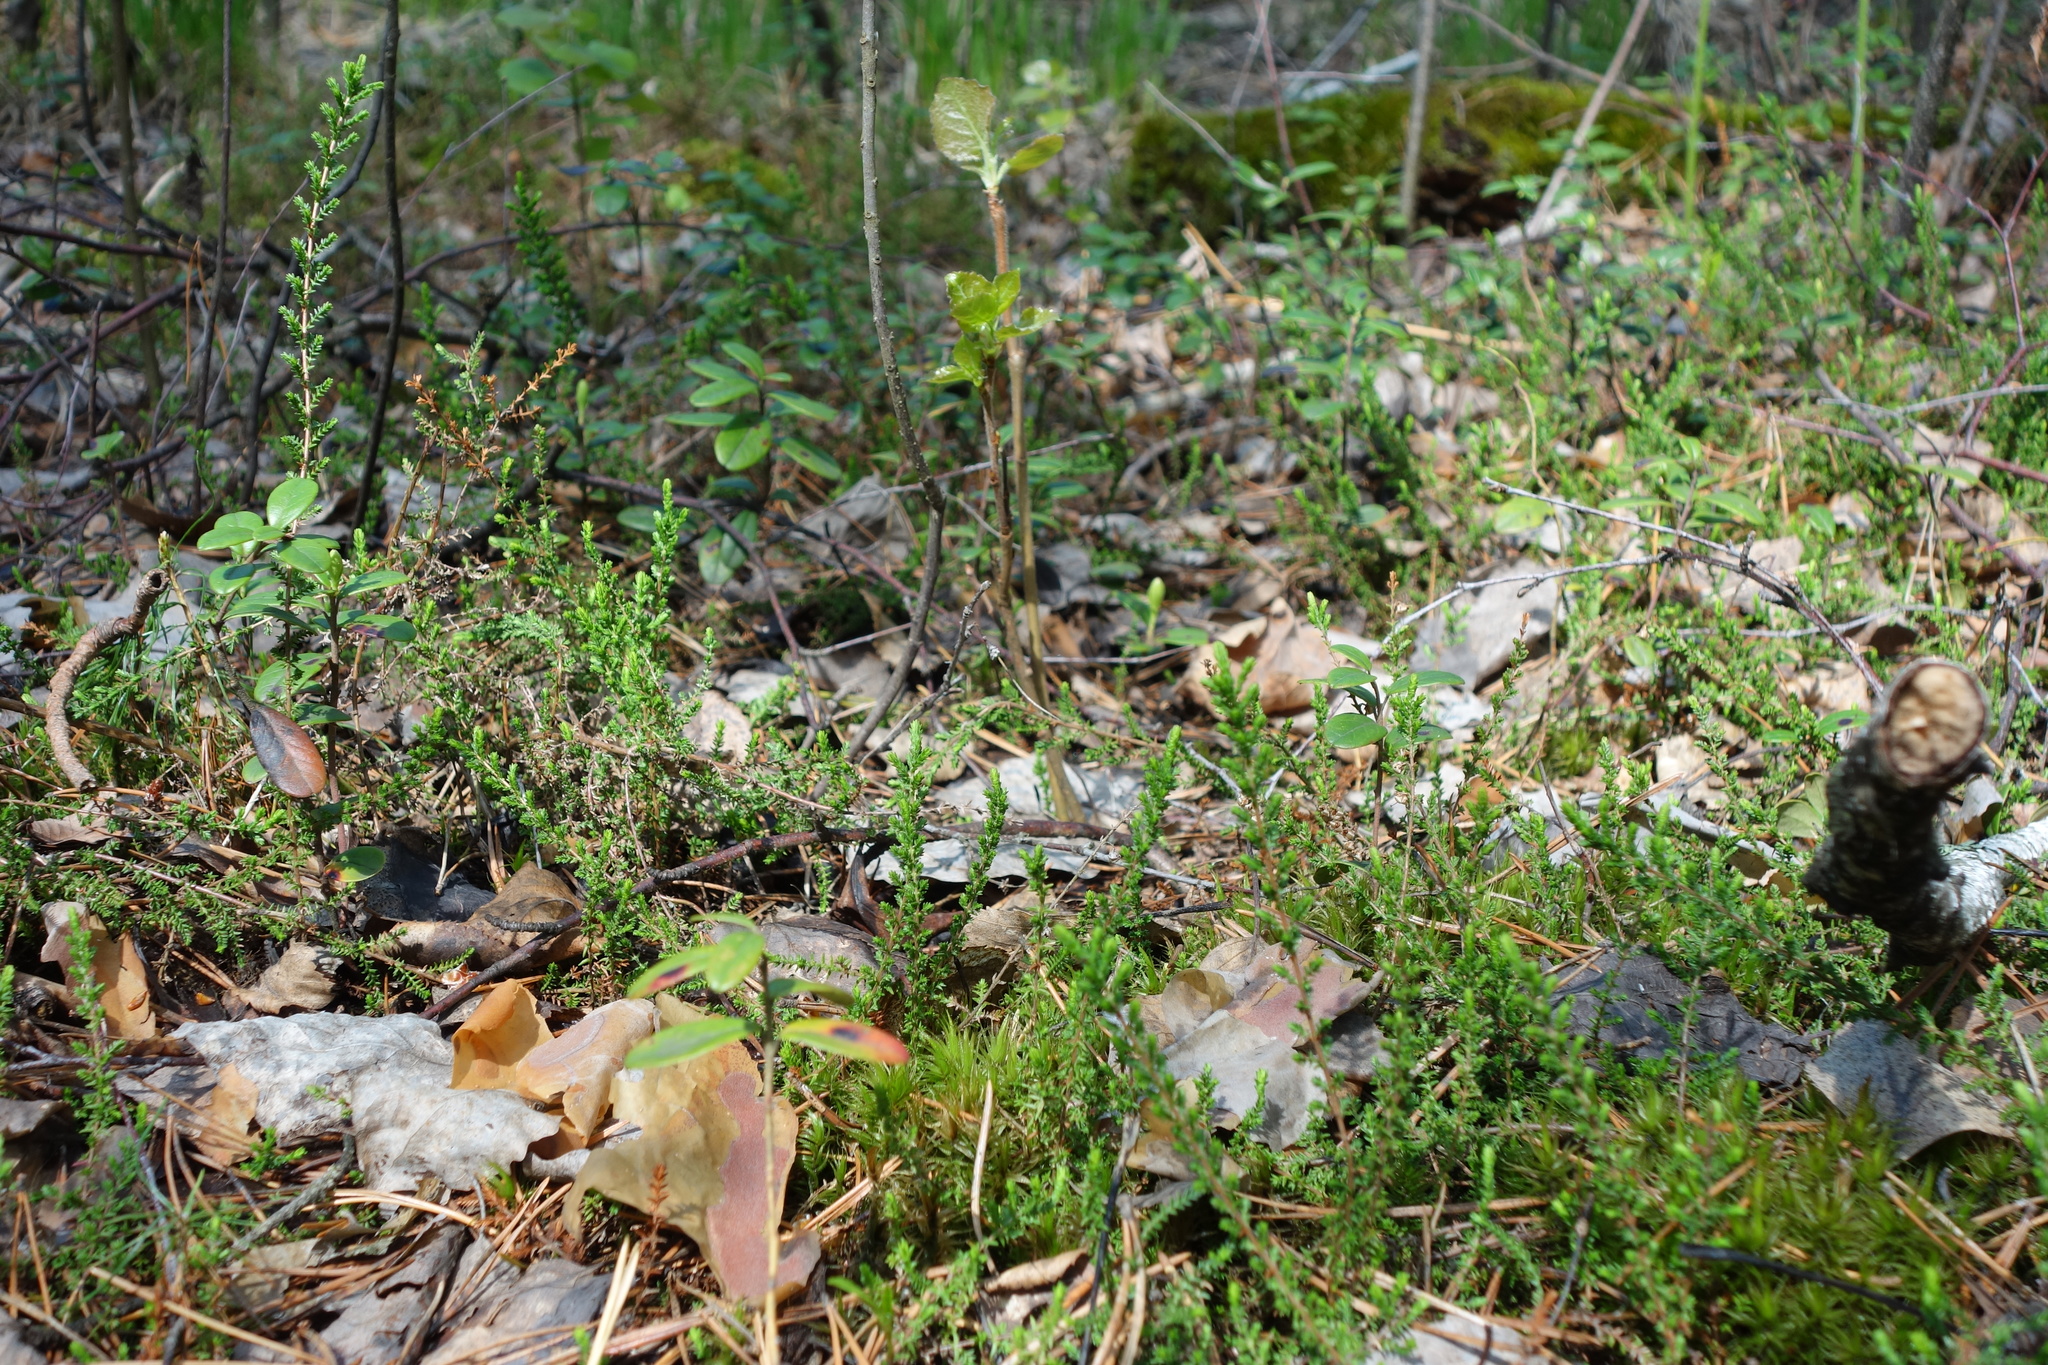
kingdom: Plantae
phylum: Tracheophyta
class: Magnoliopsida
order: Ericales
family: Ericaceae
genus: Calluna
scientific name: Calluna vulgaris
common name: Heather
